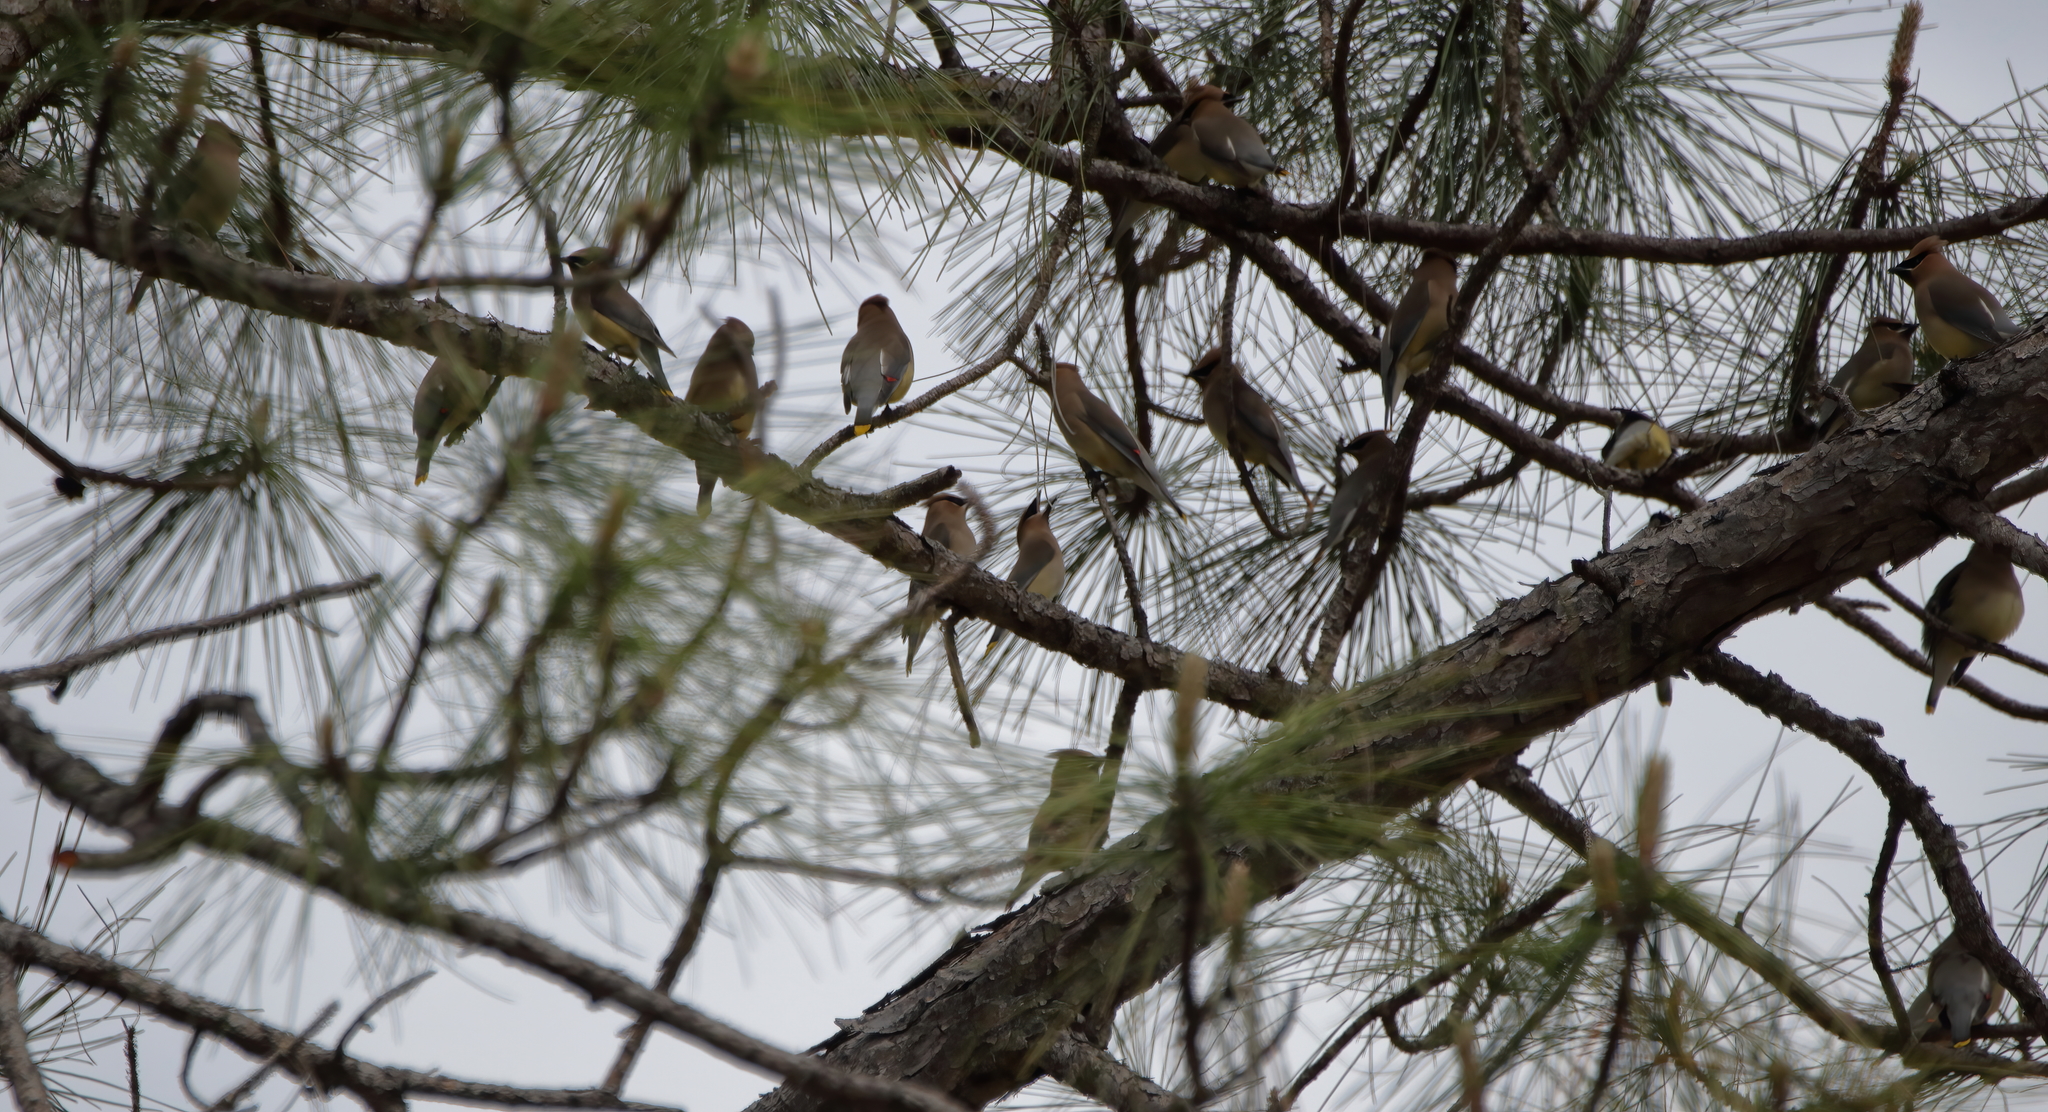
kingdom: Animalia
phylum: Chordata
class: Aves
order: Passeriformes
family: Bombycillidae
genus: Bombycilla
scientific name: Bombycilla cedrorum
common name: Cedar waxwing
